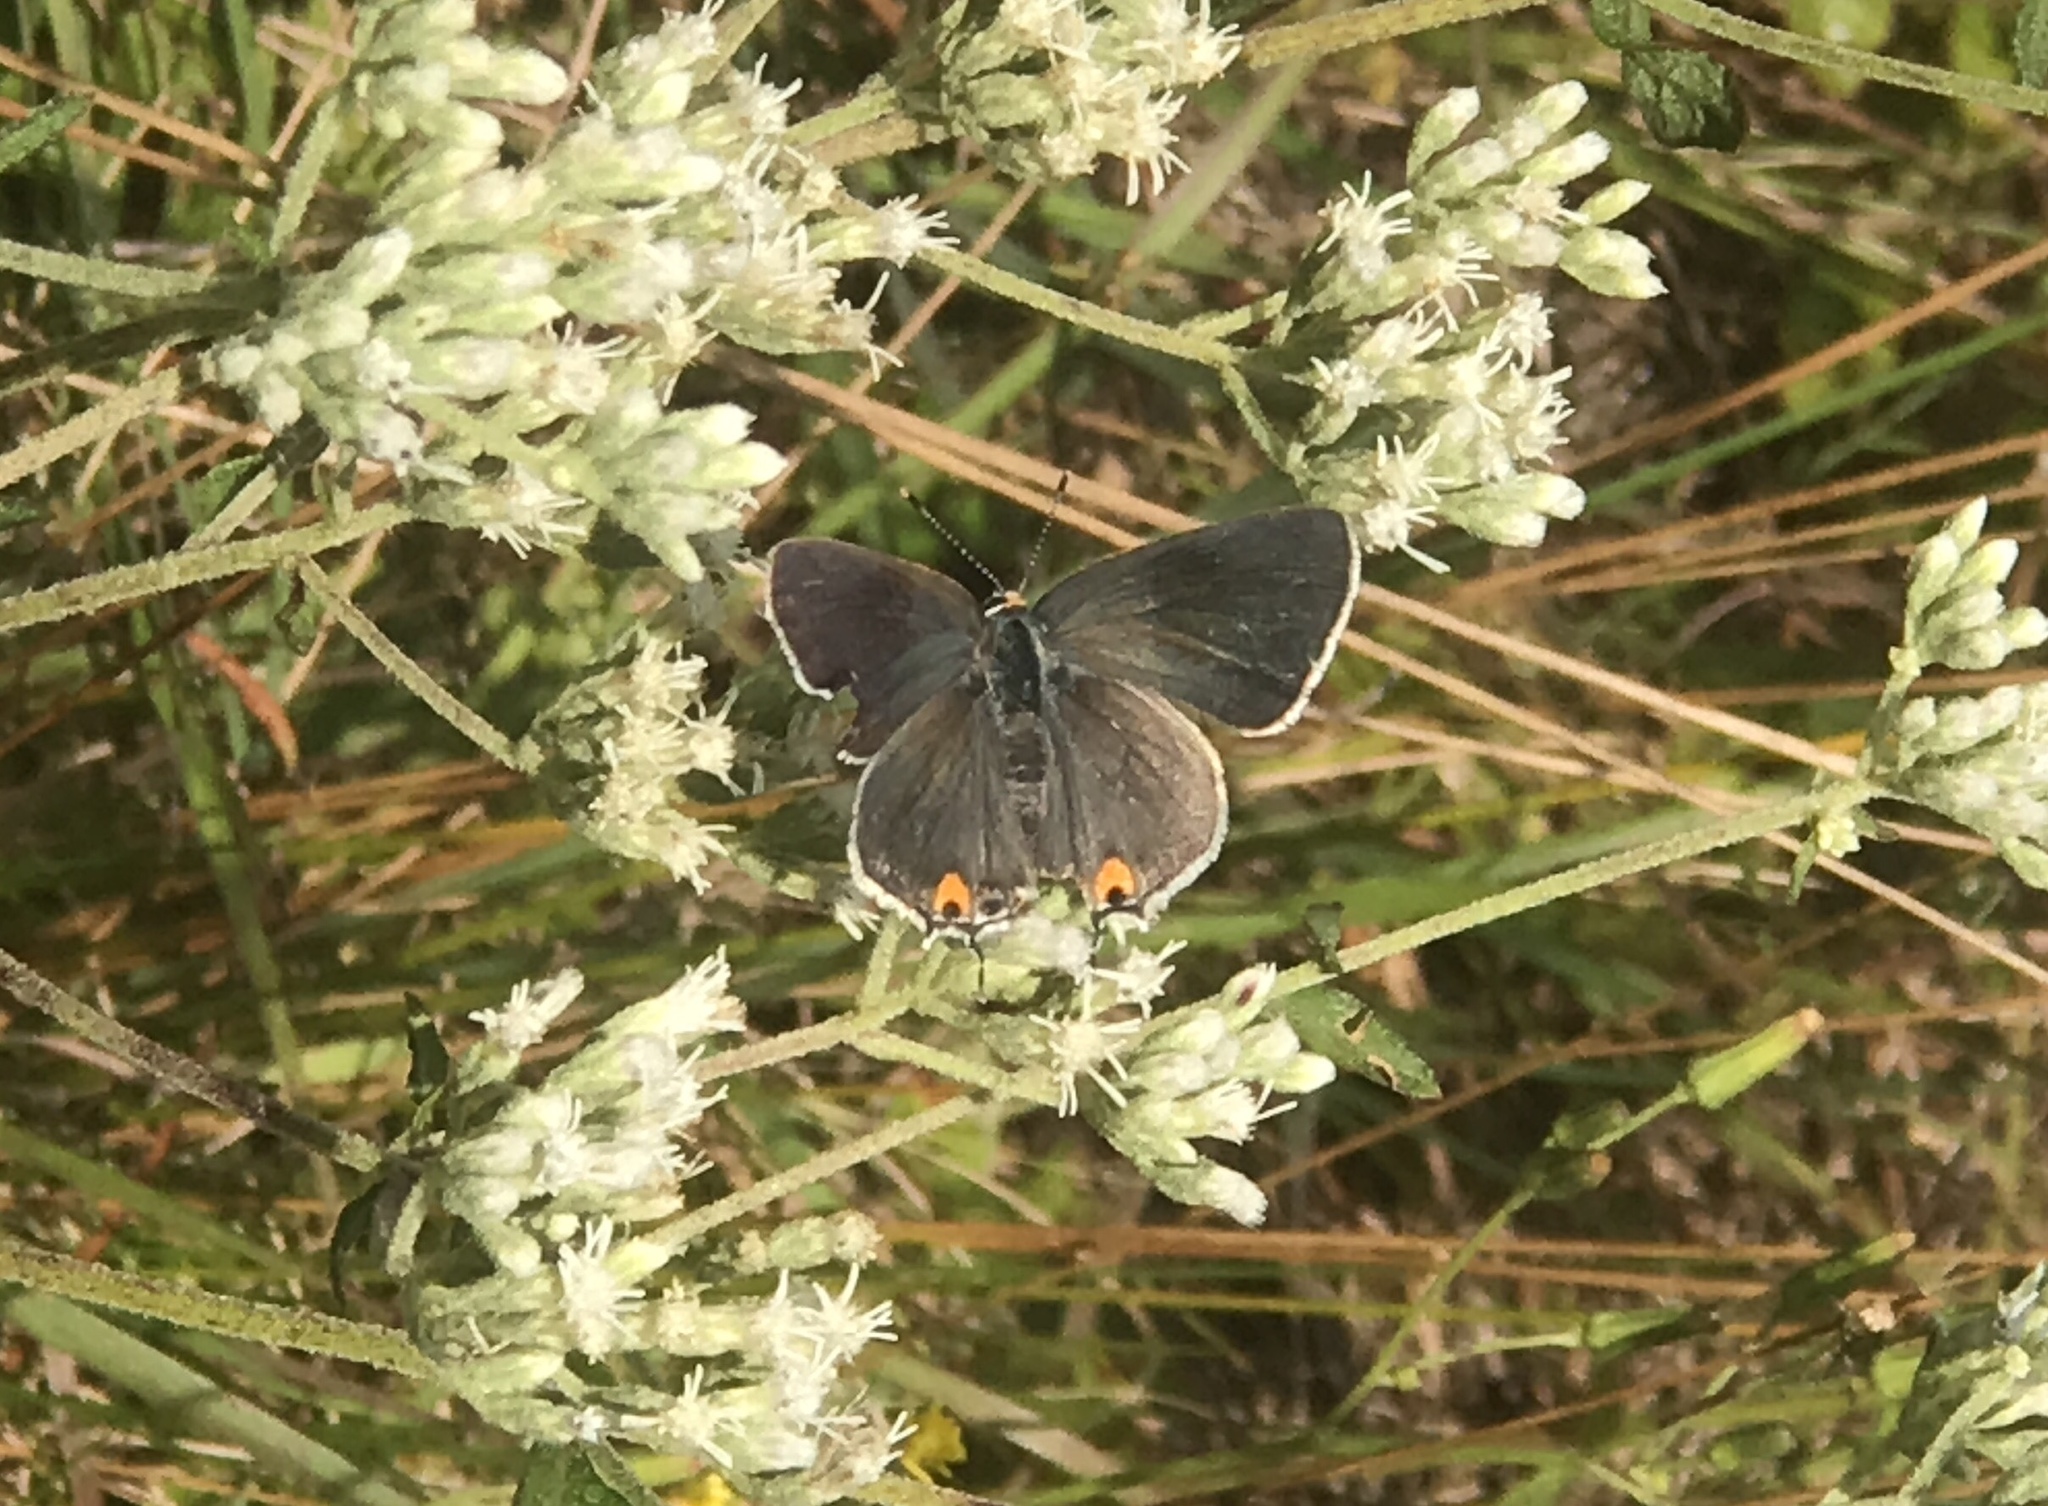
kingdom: Animalia
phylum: Arthropoda
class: Insecta
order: Lepidoptera
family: Lycaenidae
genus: Strymon
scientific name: Strymon melinus
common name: Gray hairstreak
